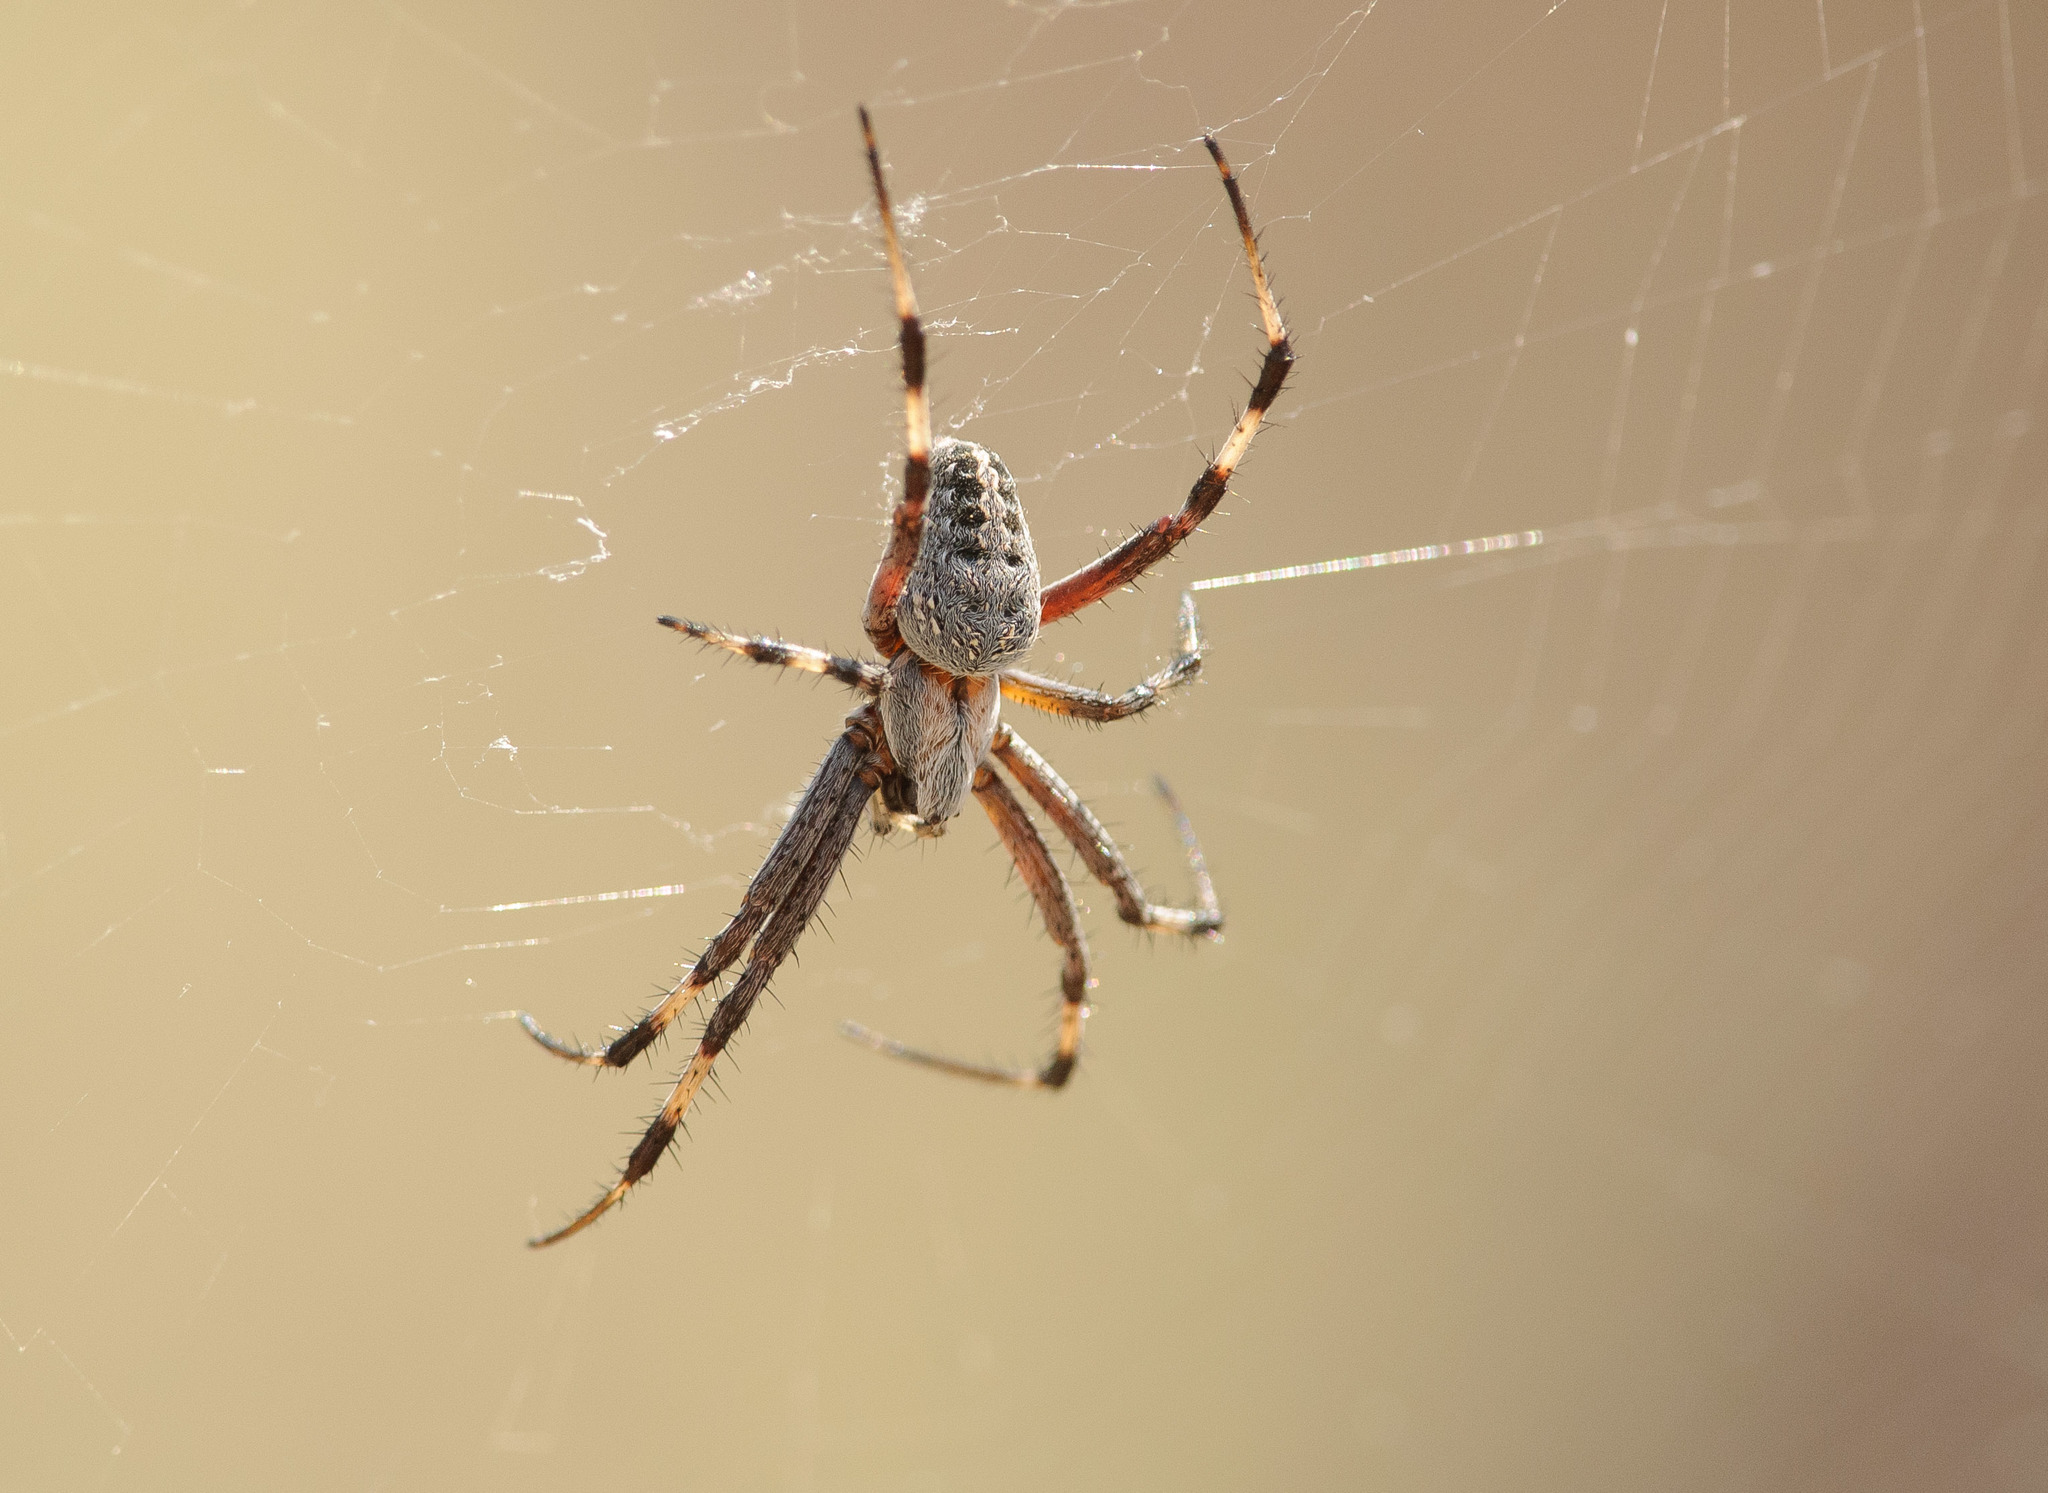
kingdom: Animalia
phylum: Arthropoda
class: Arachnida
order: Araneae
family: Araneidae
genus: Neoscona
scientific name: Neoscona oaxacensis
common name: Orb weavers
